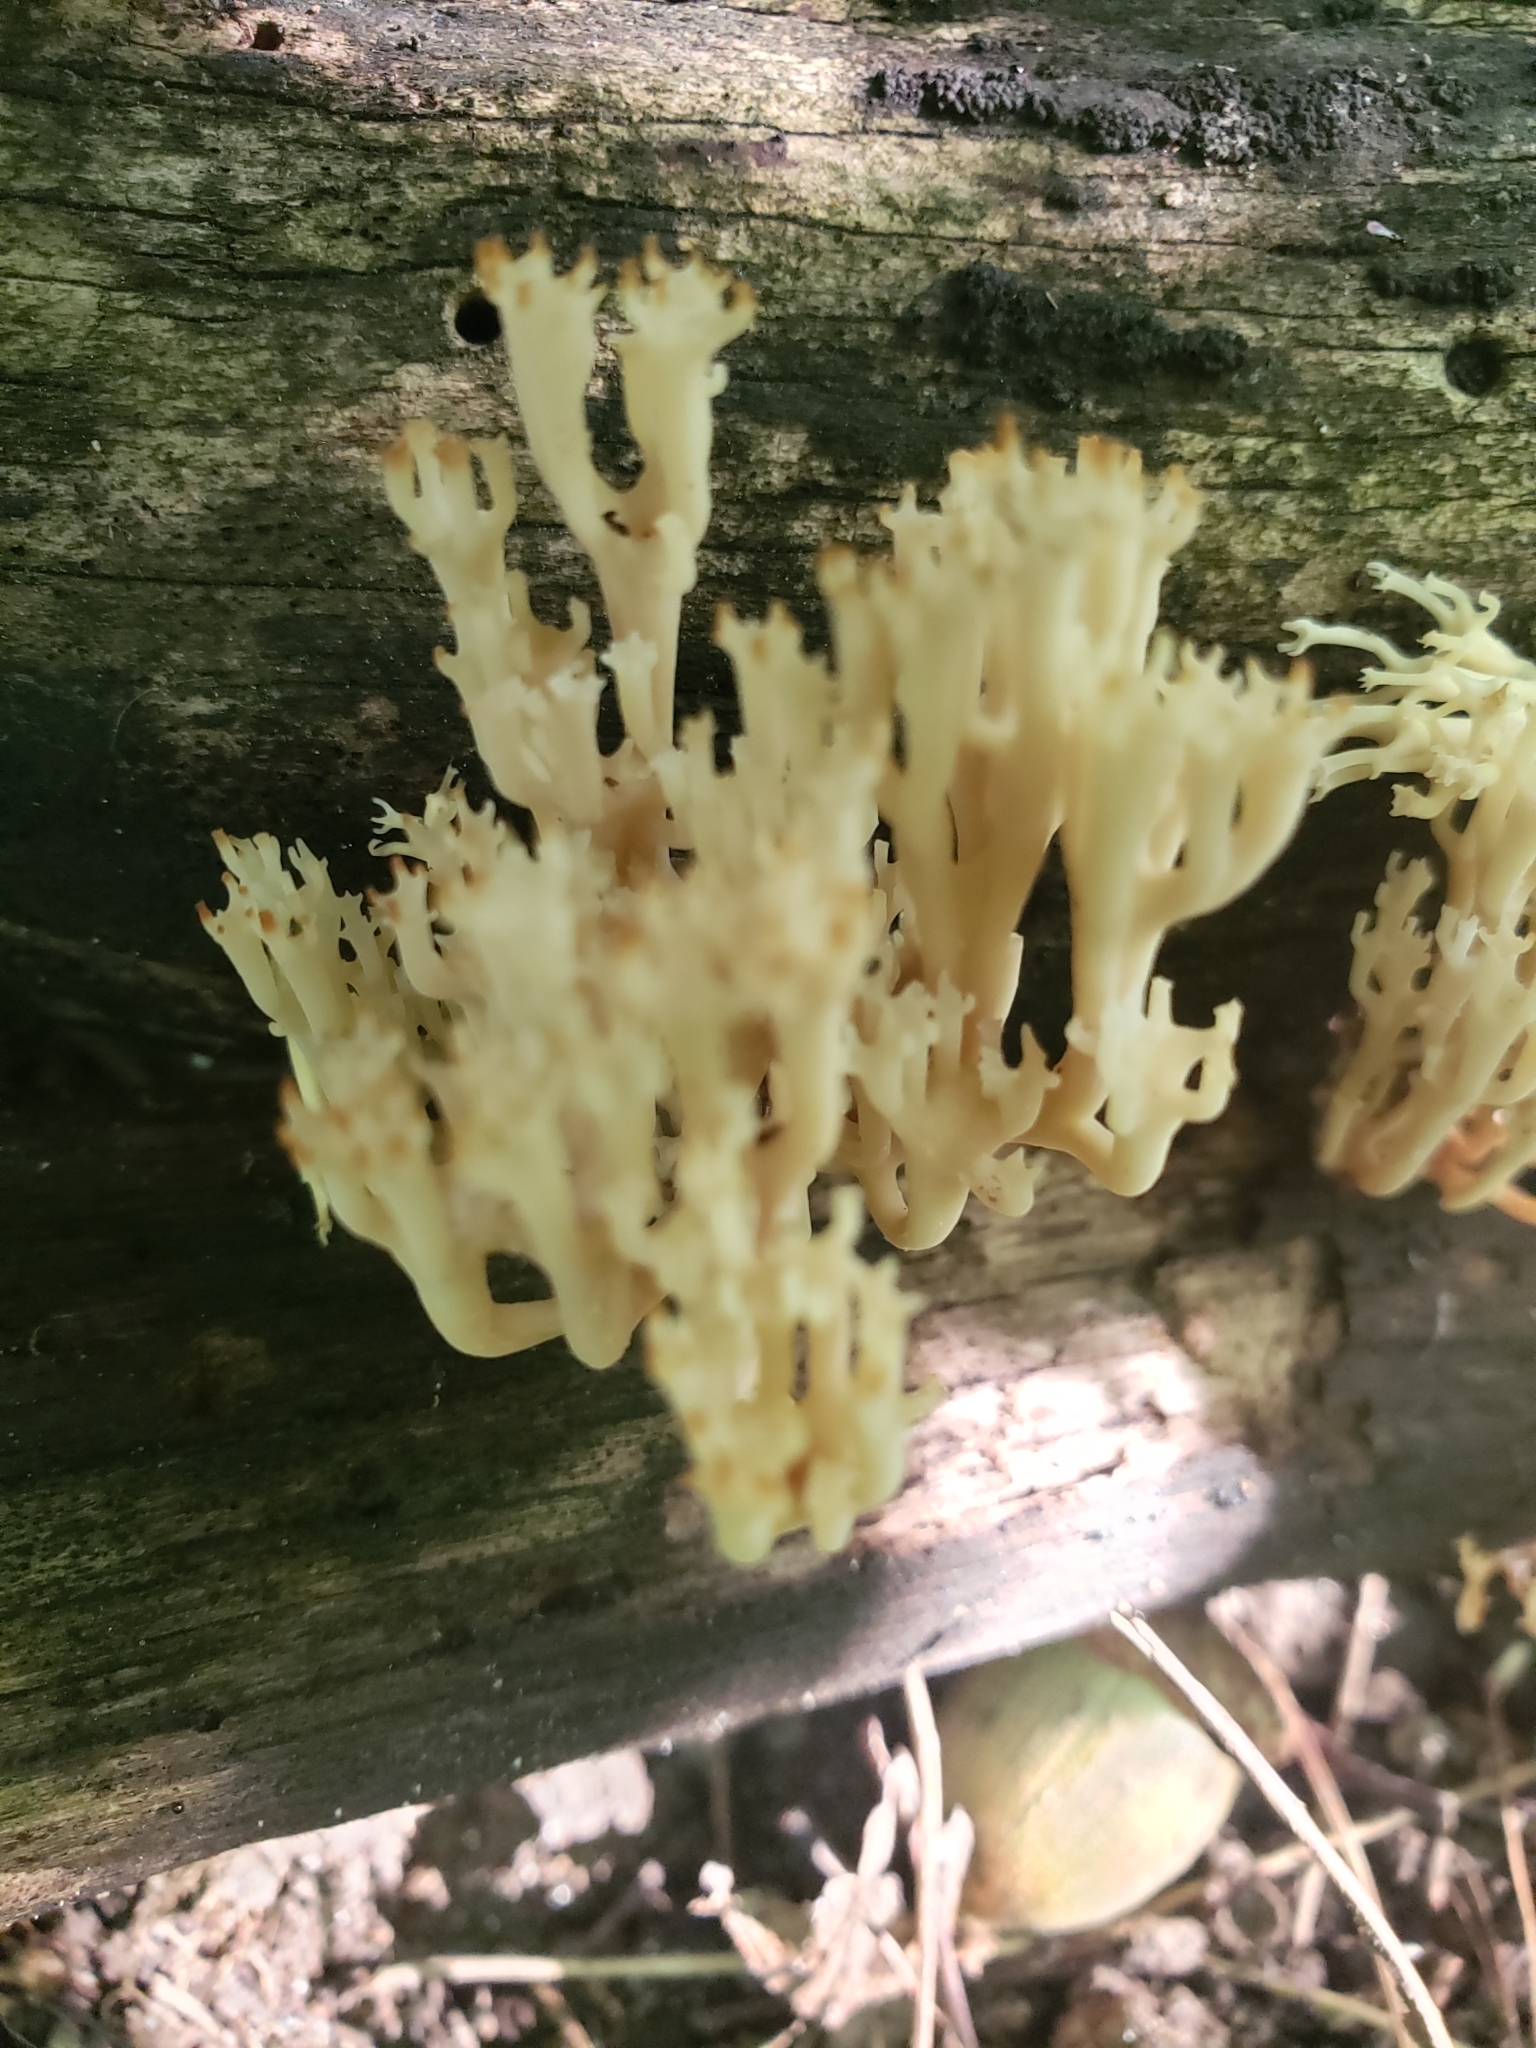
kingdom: Fungi
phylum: Basidiomycota
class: Agaricomycetes
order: Russulales
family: Auriscalpiaceae
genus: Artomyces
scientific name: Artomyces pyxidatus
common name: Crown-tipped coral fungus
